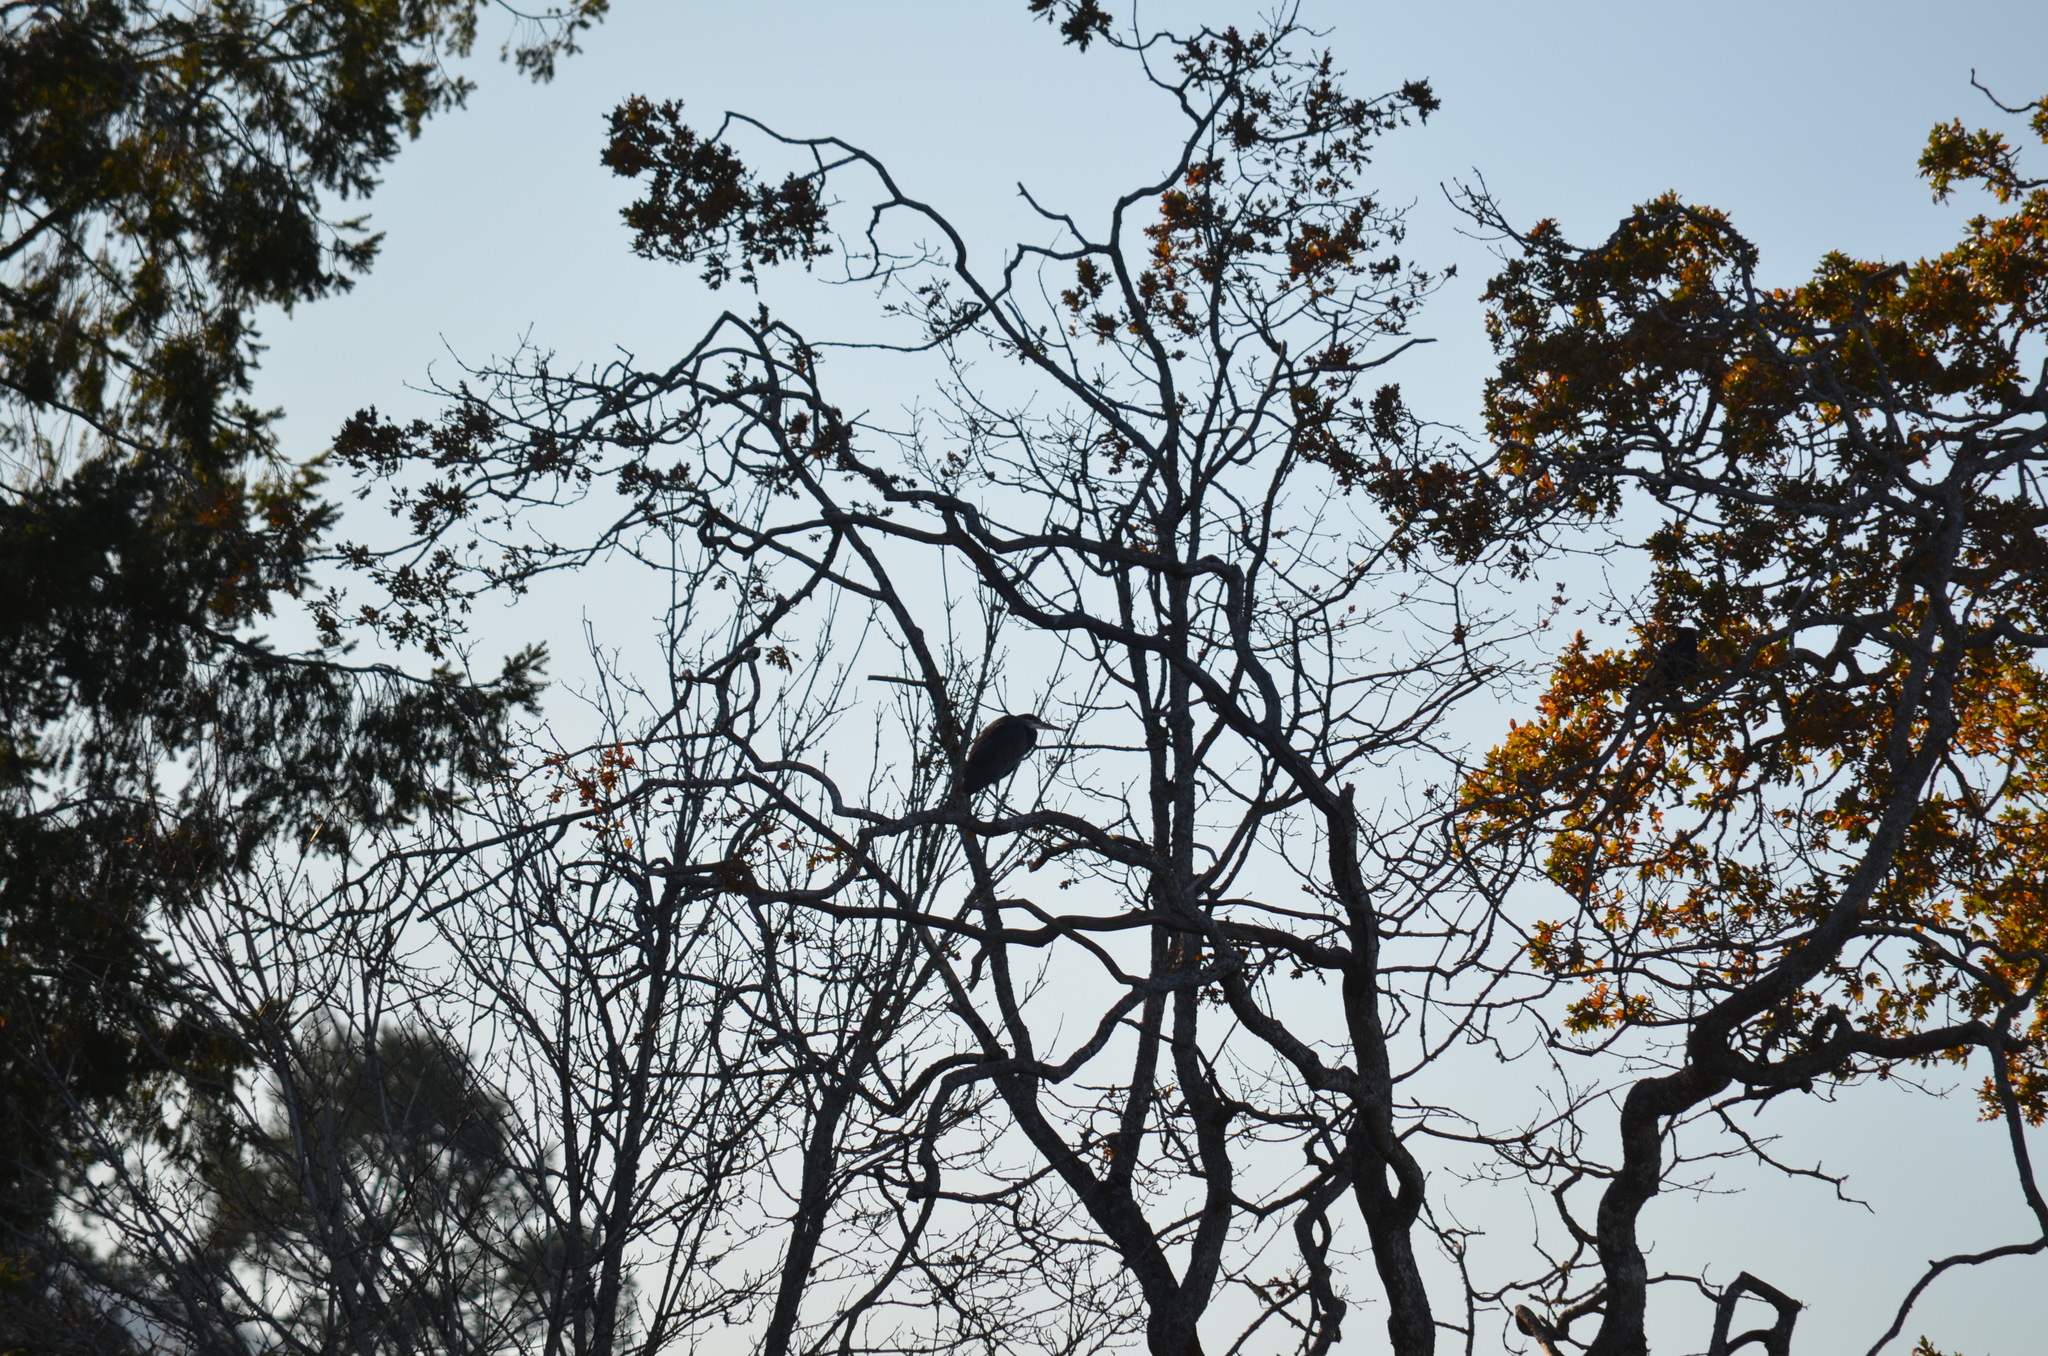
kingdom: Animalia
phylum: Chordata
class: Aves
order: Pelecaniformes
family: Ardeidae
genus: Ardea
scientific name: Ardea herodias
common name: Great blue heron
